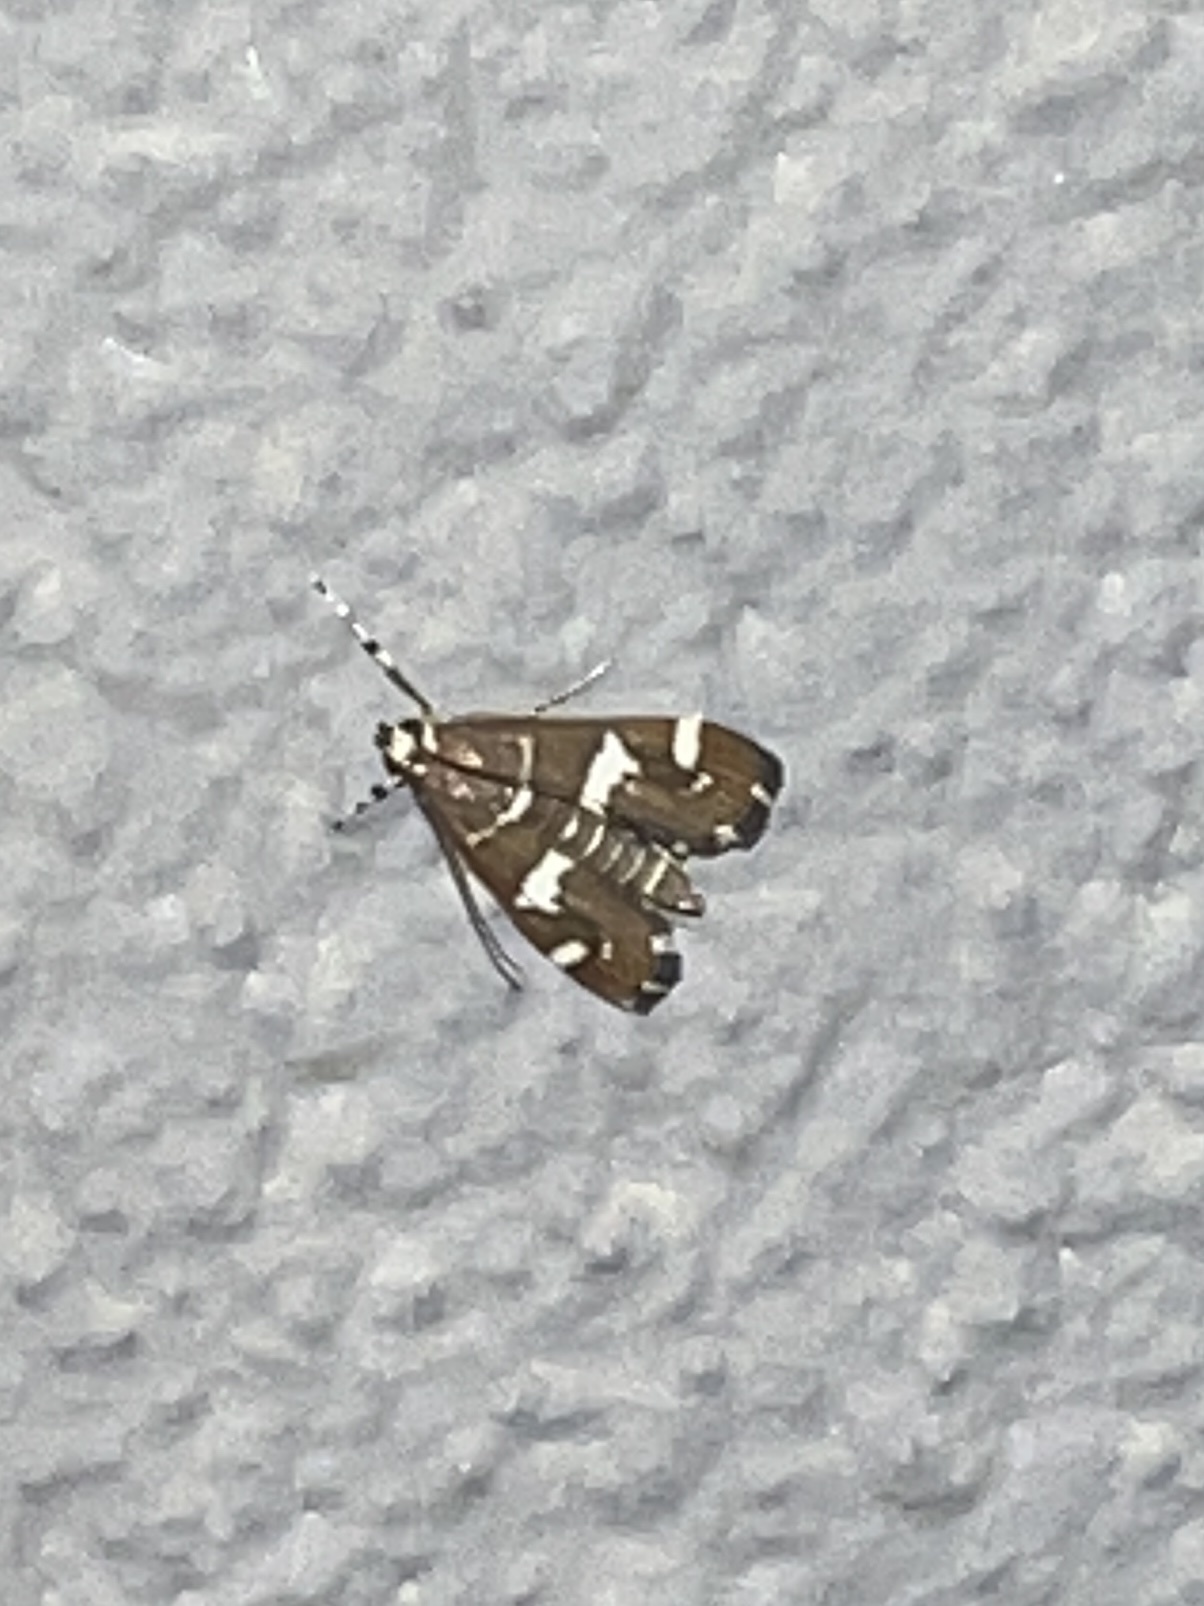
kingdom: Animalia
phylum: Arthropoda
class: Insecta
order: Lepidoptera
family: Crambidae
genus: Spoladea
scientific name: Spoladea recurvalis
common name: Beet webworm moth
